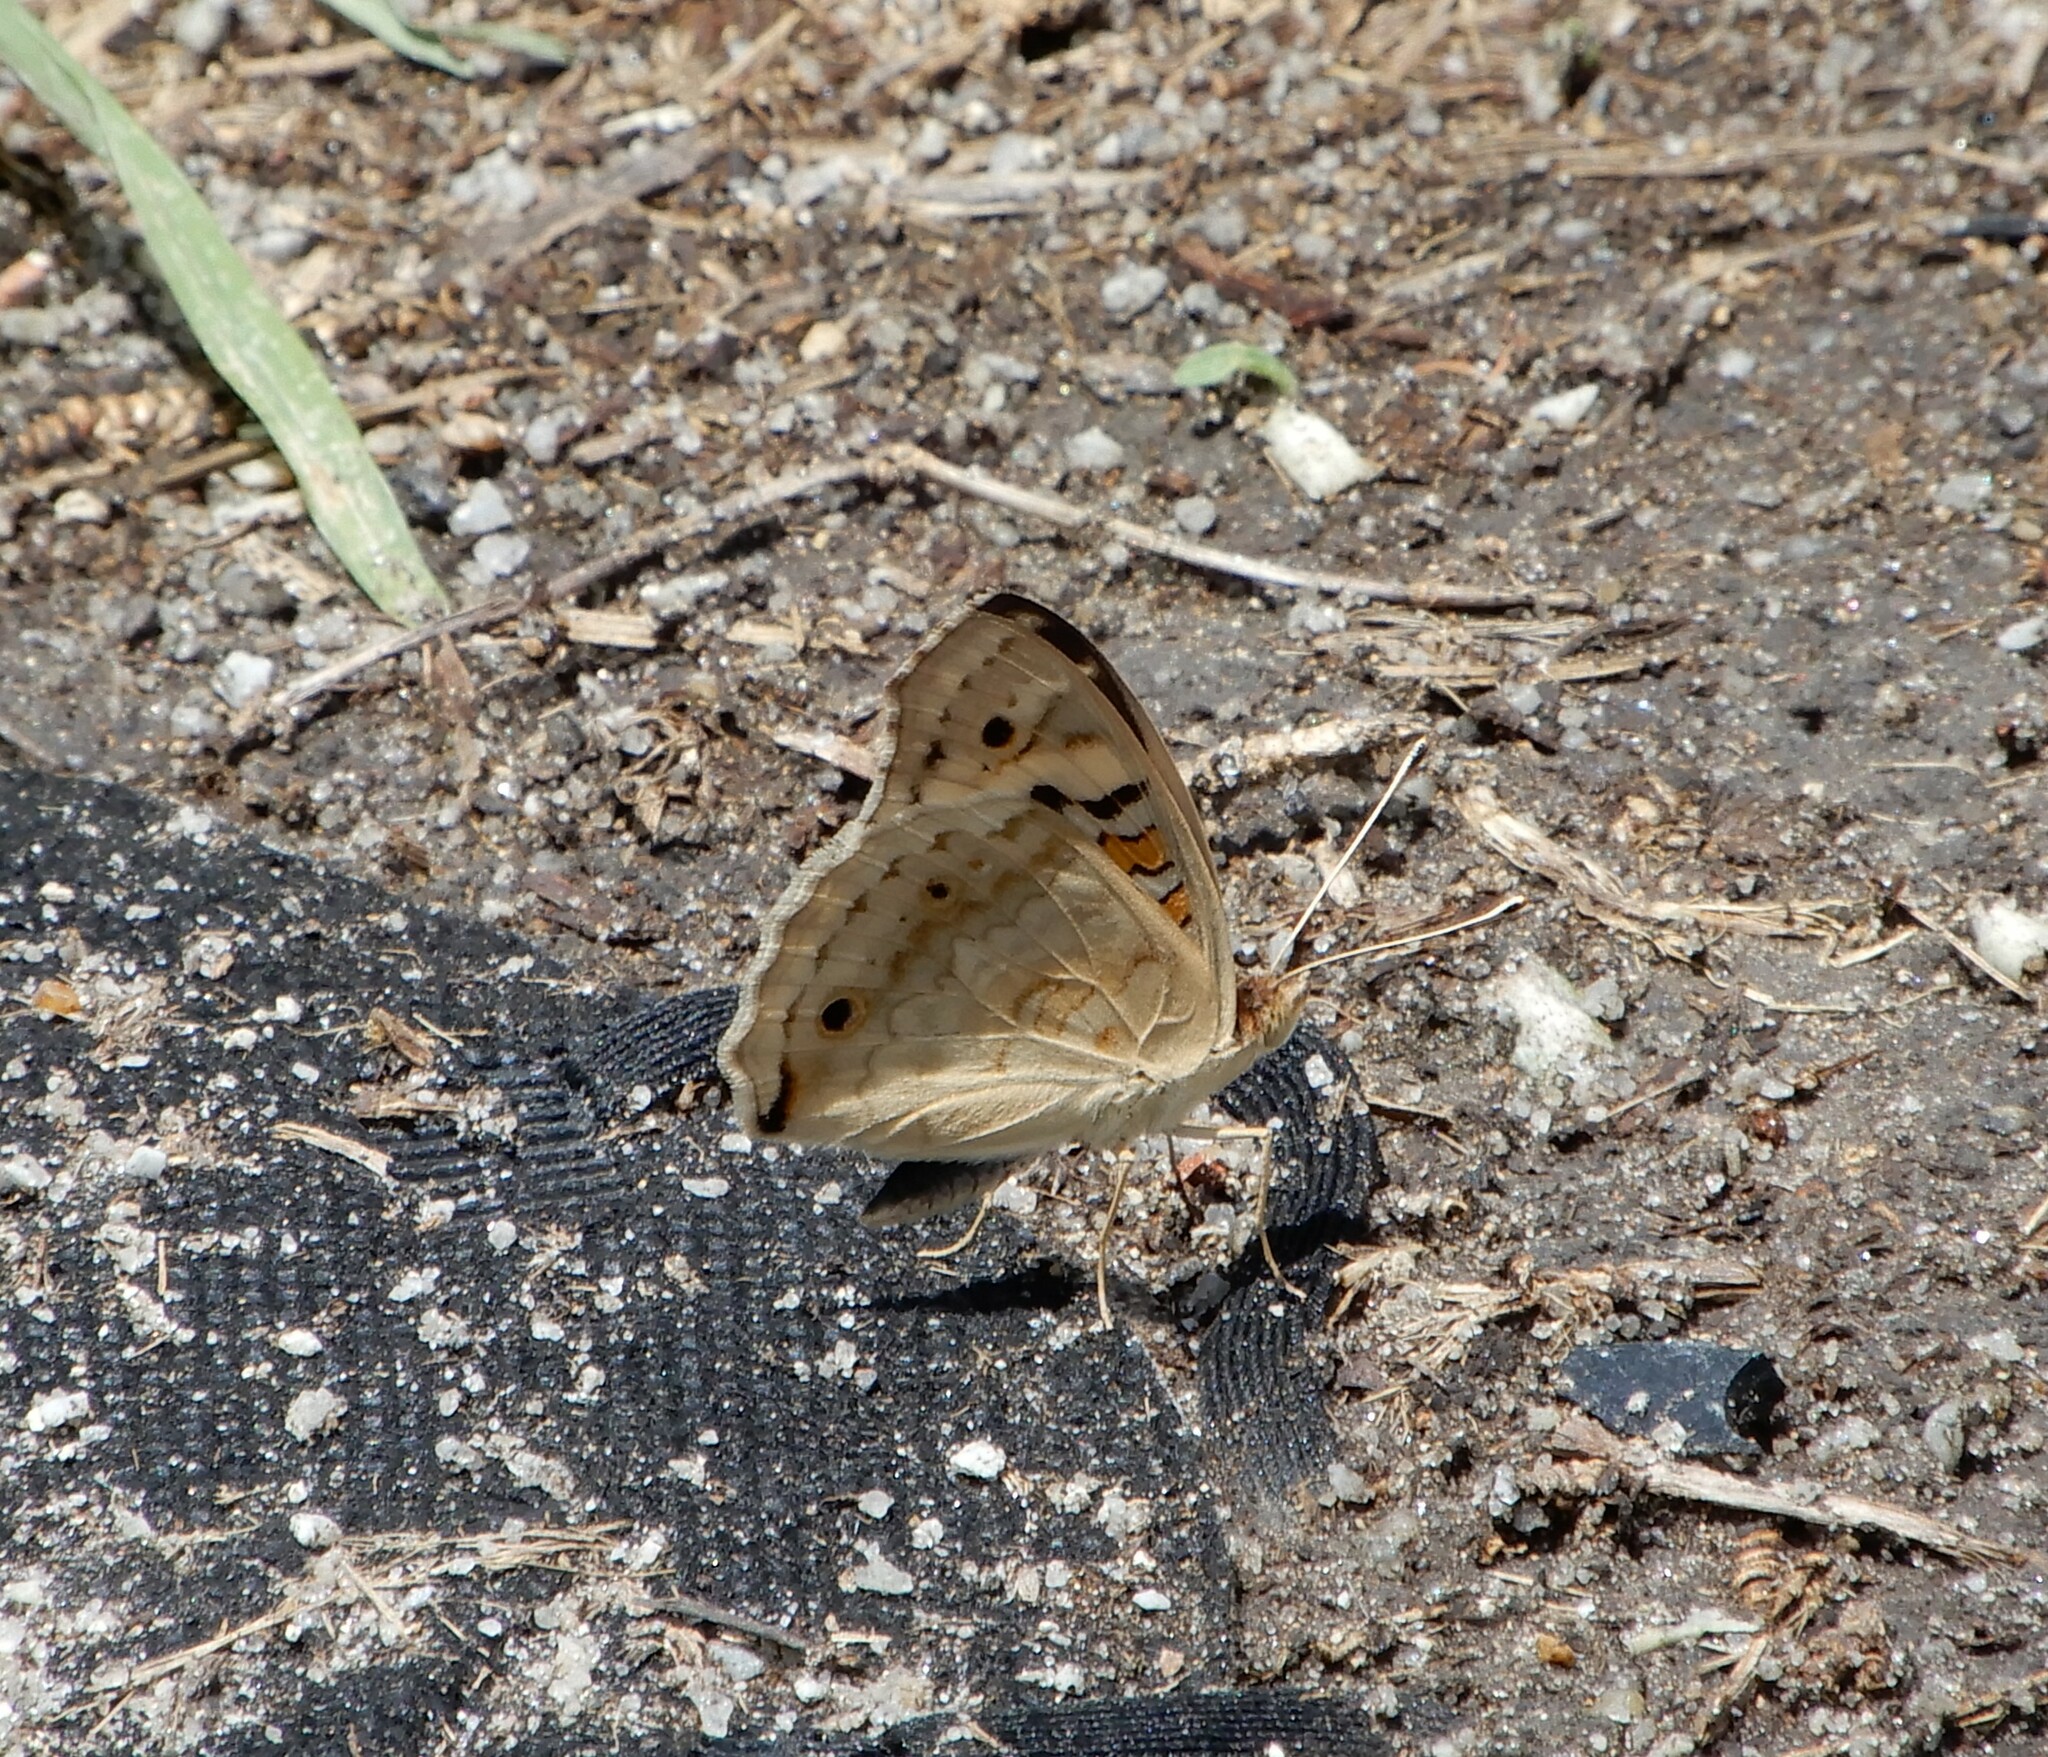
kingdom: Animalia
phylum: Arthropoda
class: Insecta
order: Lepidoptera
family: Nymphalidae
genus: Junonia
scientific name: Junonia orithya
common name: Blue pansy
